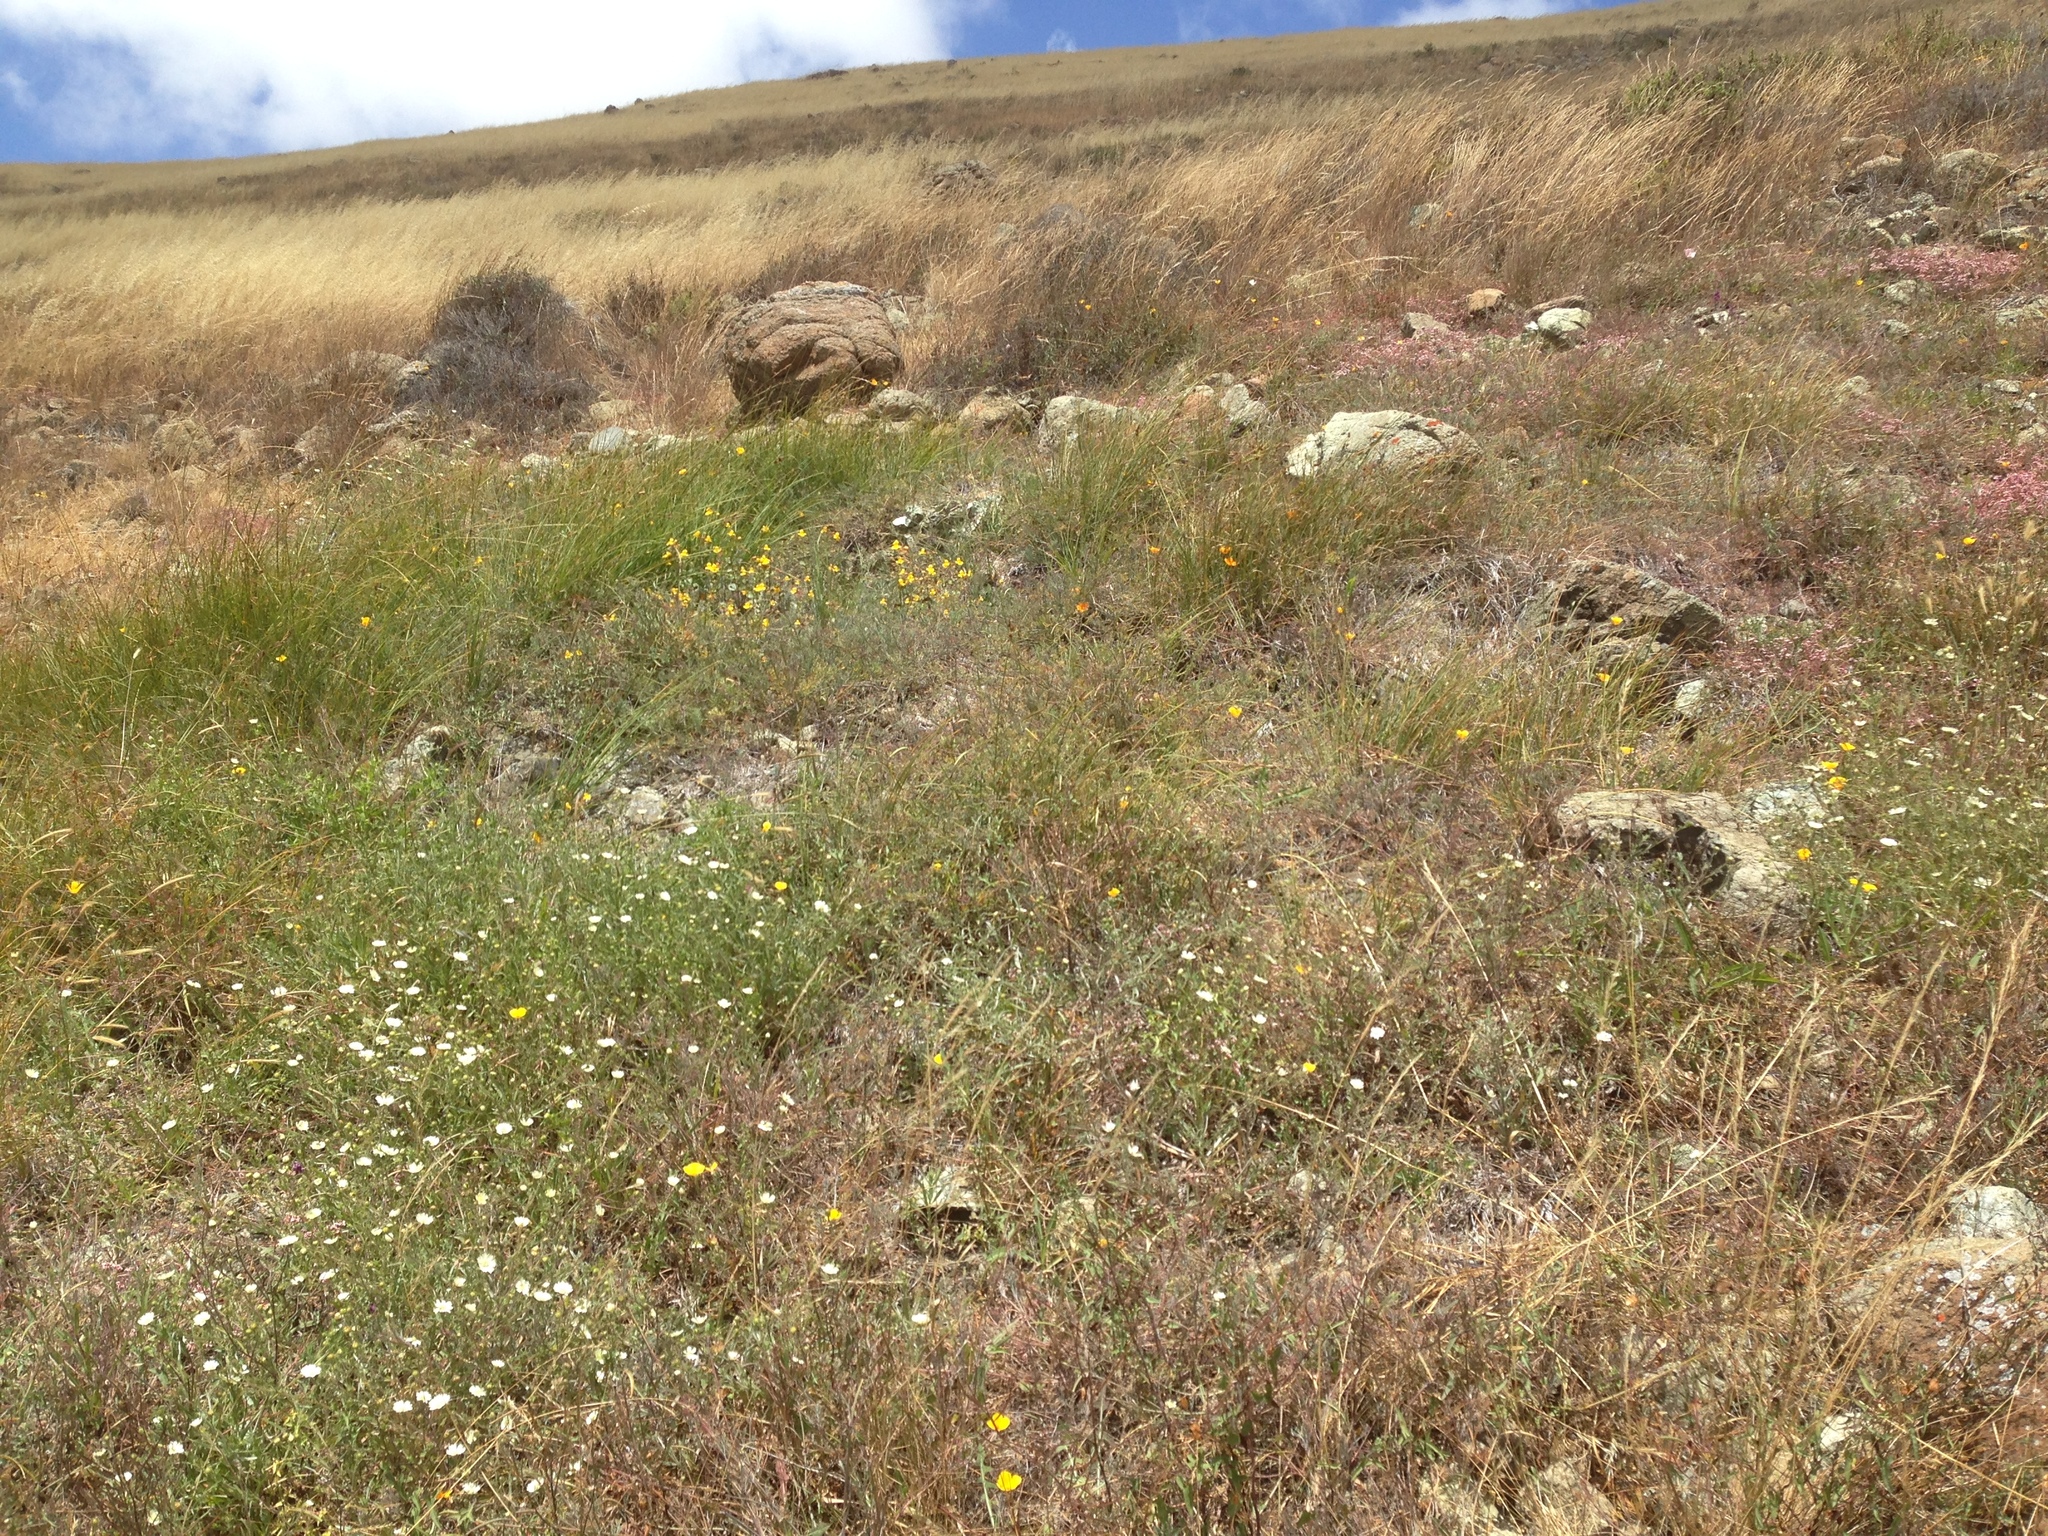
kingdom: Plantae
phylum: Tracheophyta
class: Magnoliopsida
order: Asterales
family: Asteraceae
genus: Hemizonia
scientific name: Hemizonia congesta
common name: Hayfield tarweed
